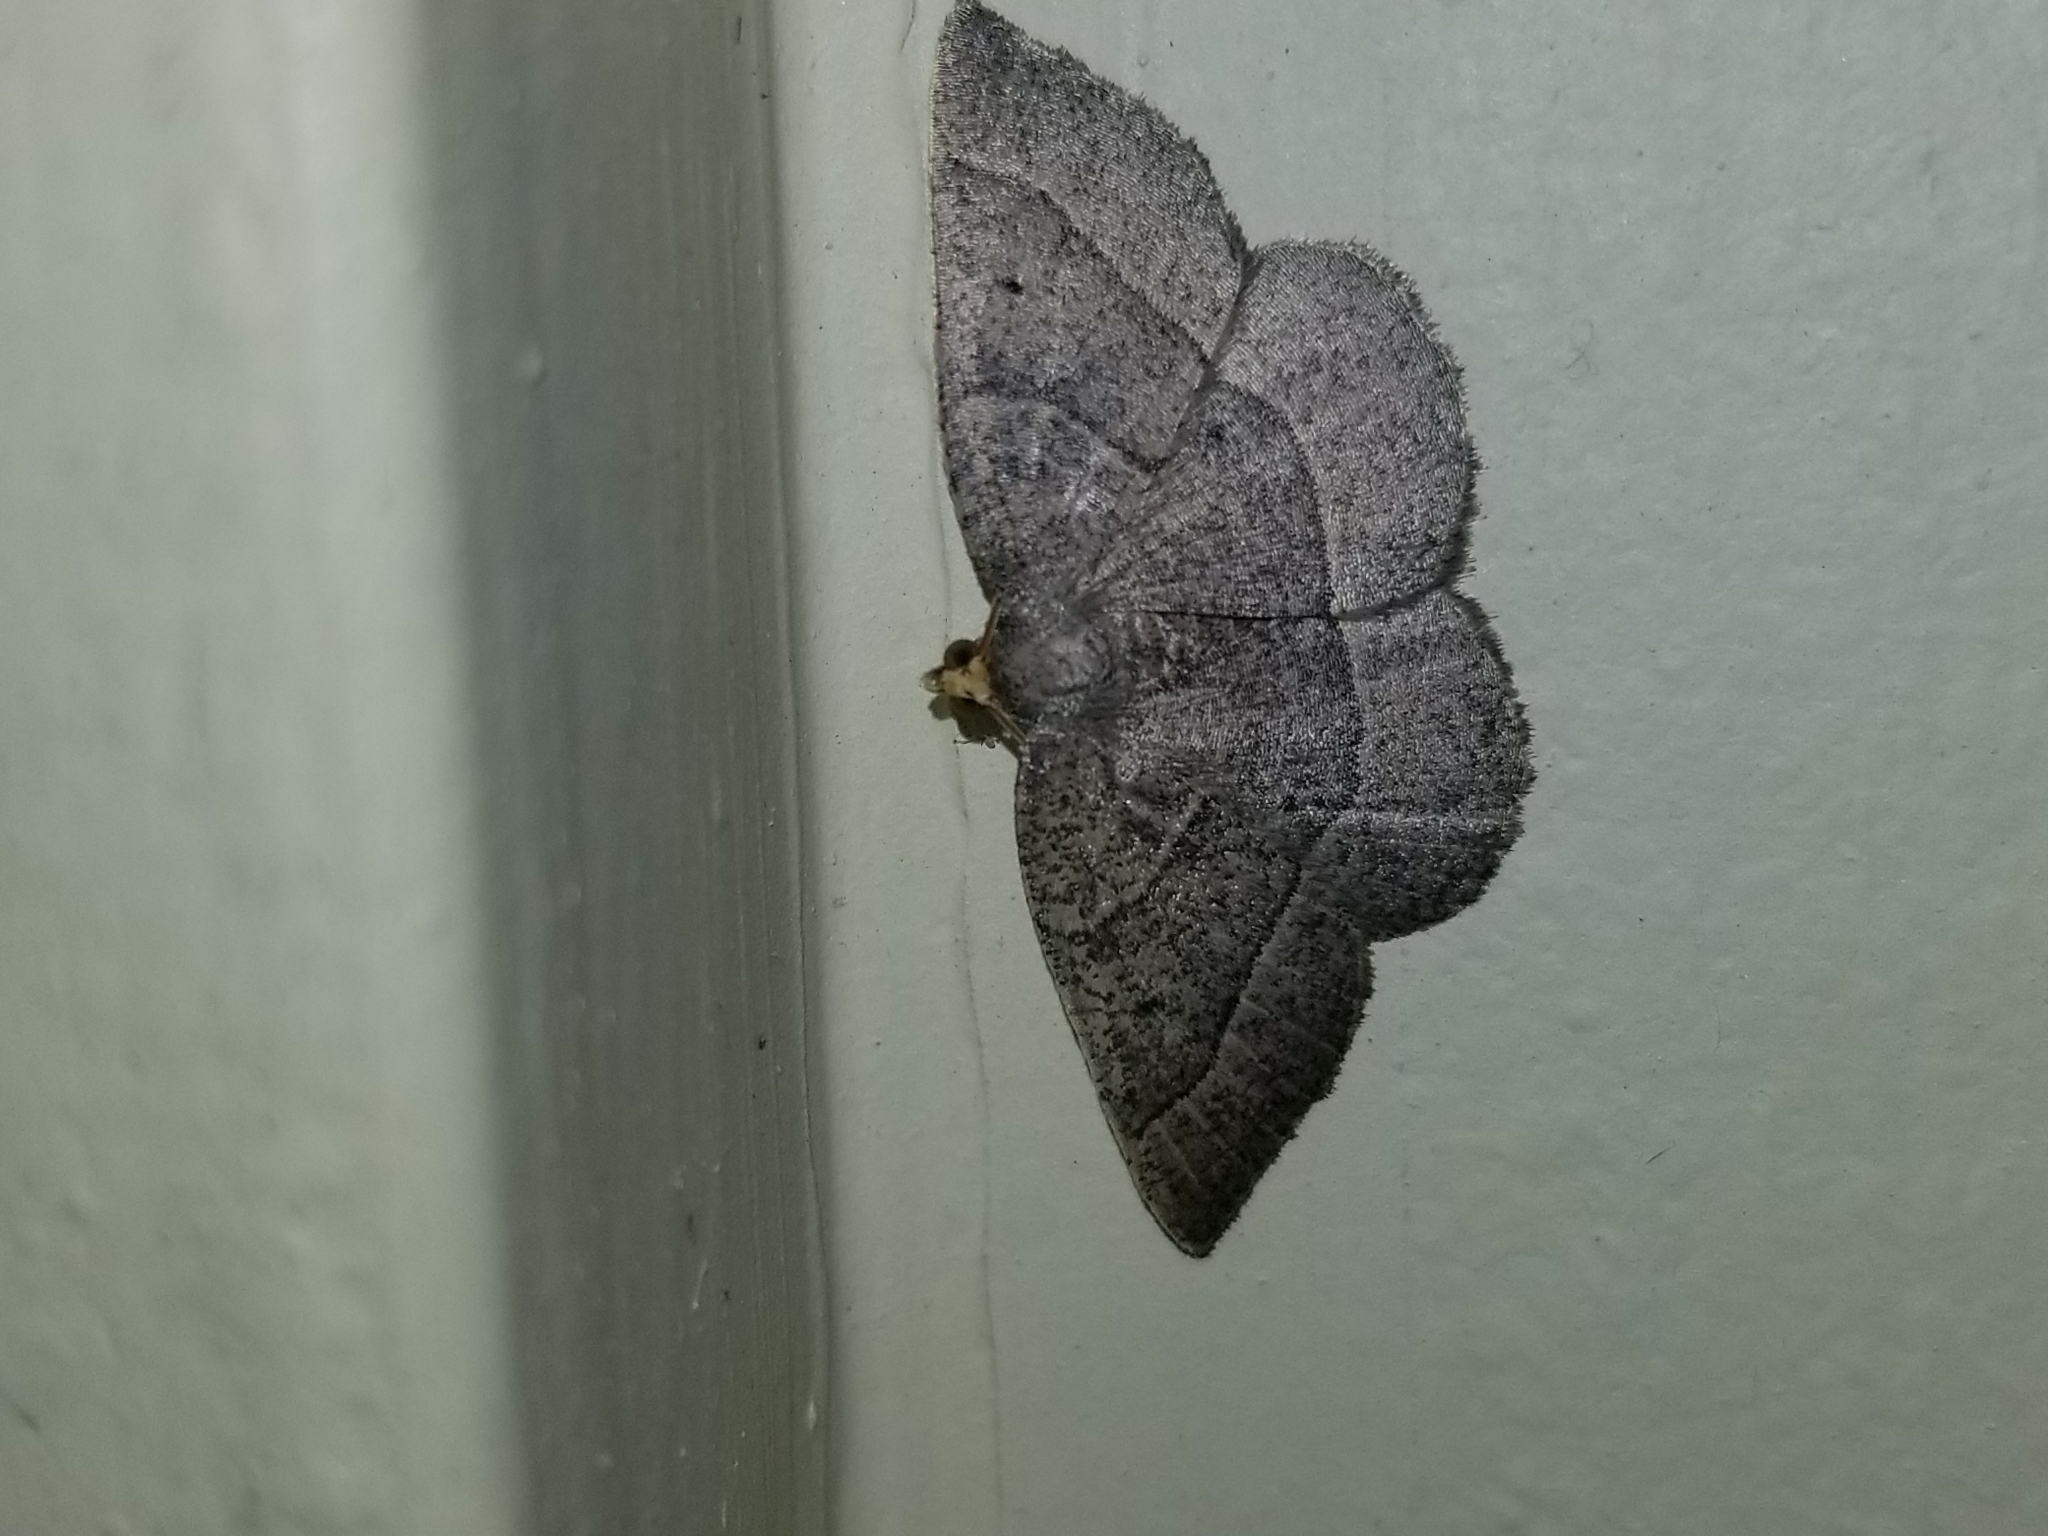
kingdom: Animalia
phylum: Arthropoda
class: Insecta
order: Lepidoptera
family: Geometridae
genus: Episemasia
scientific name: Episemasia cervinaria
